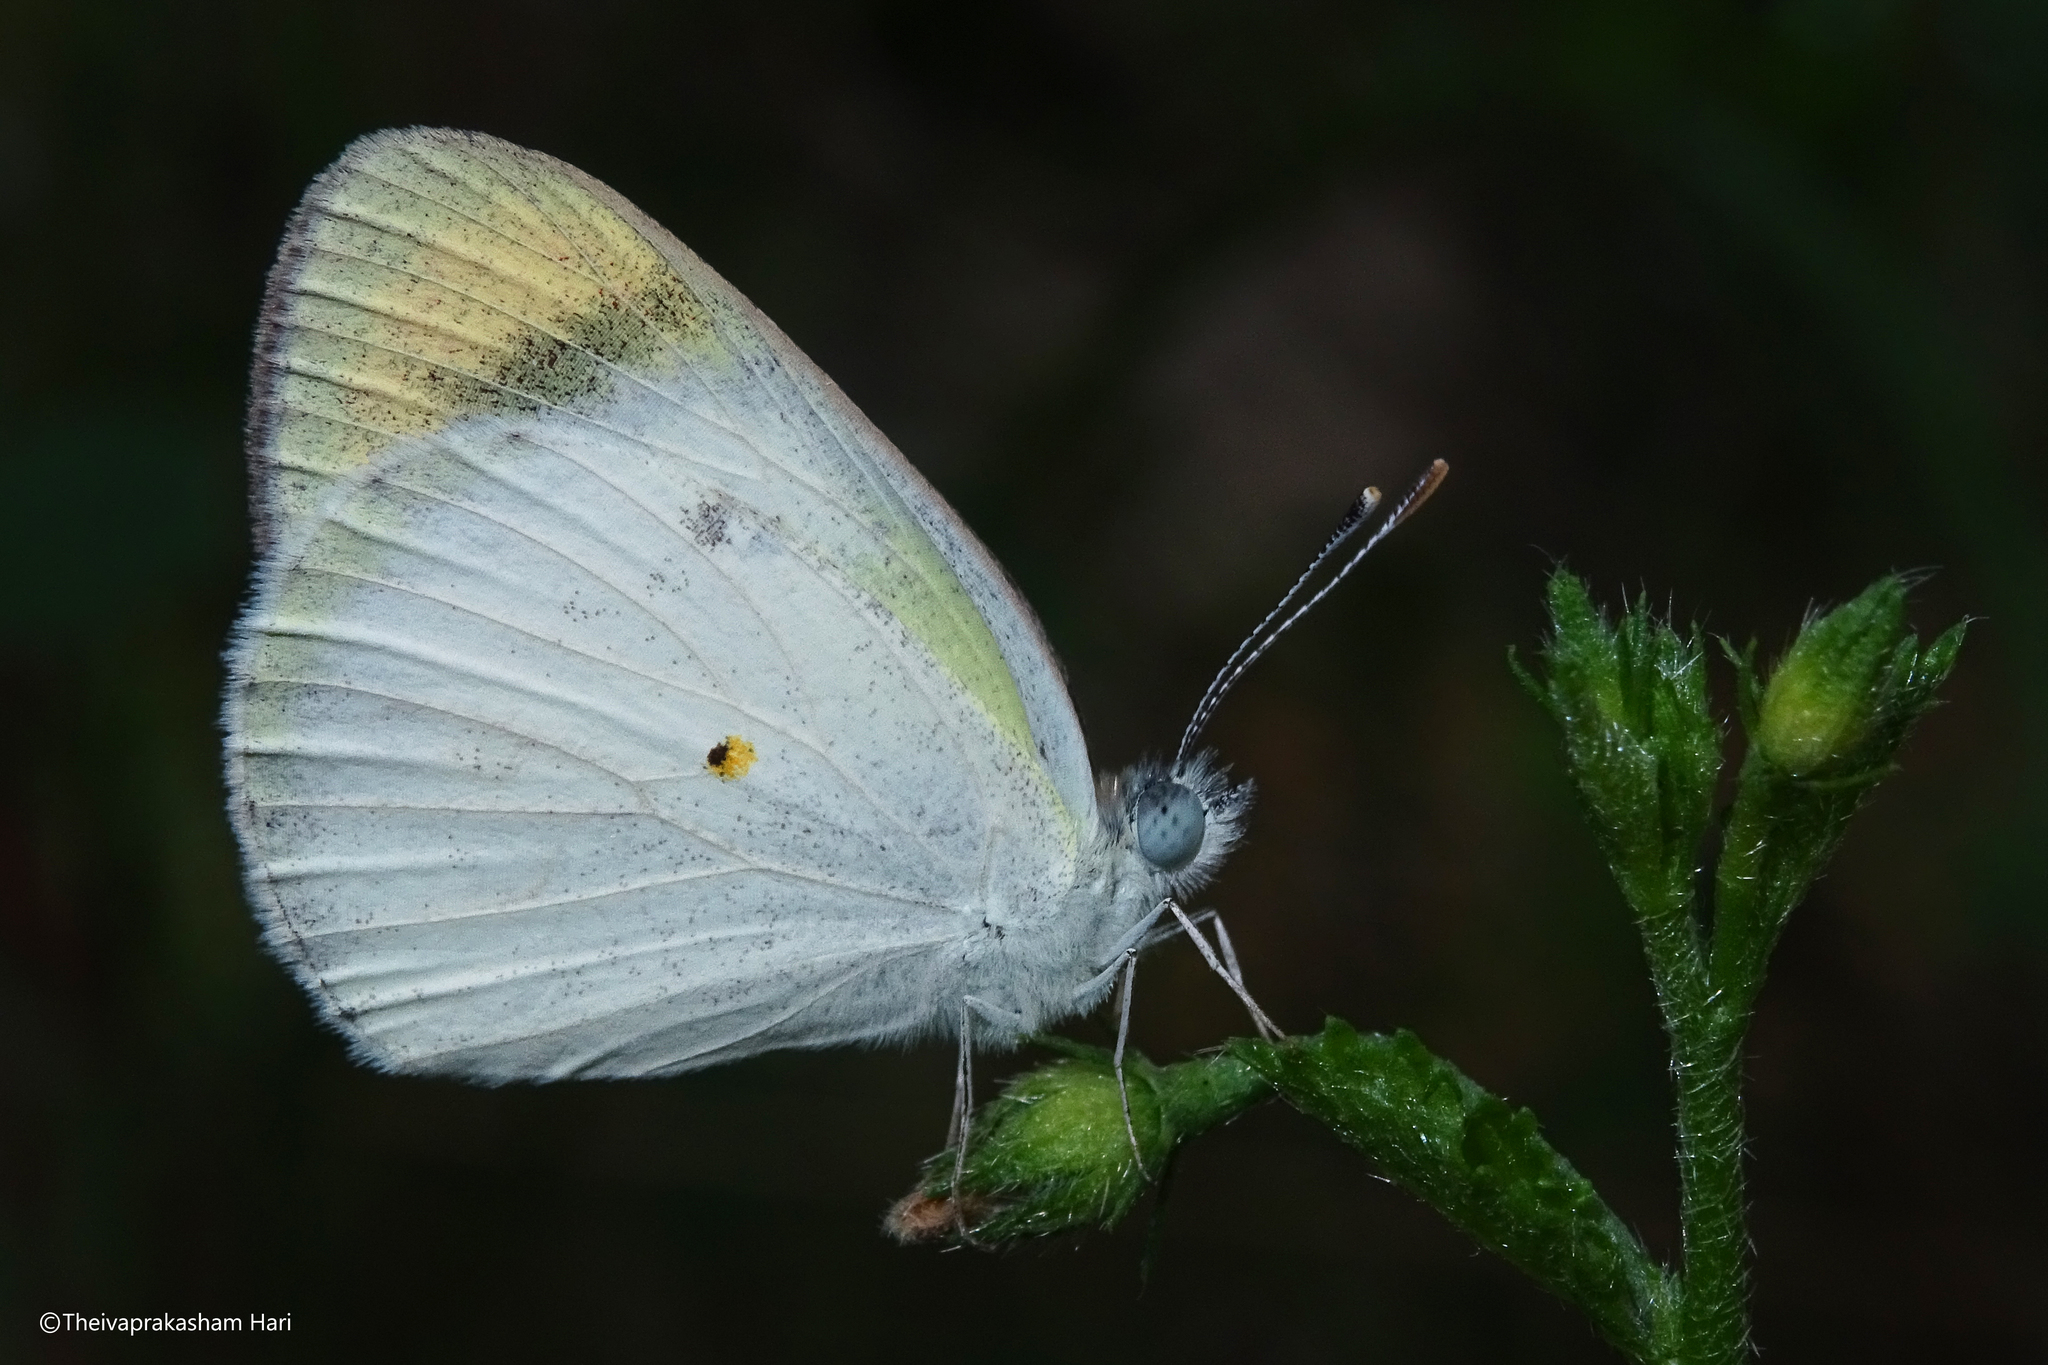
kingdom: Animalia
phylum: Arthropoda
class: Insecta
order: Lepidoptera
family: Pieridae
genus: Colotis
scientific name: Colotis etrida
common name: Little orange tip
